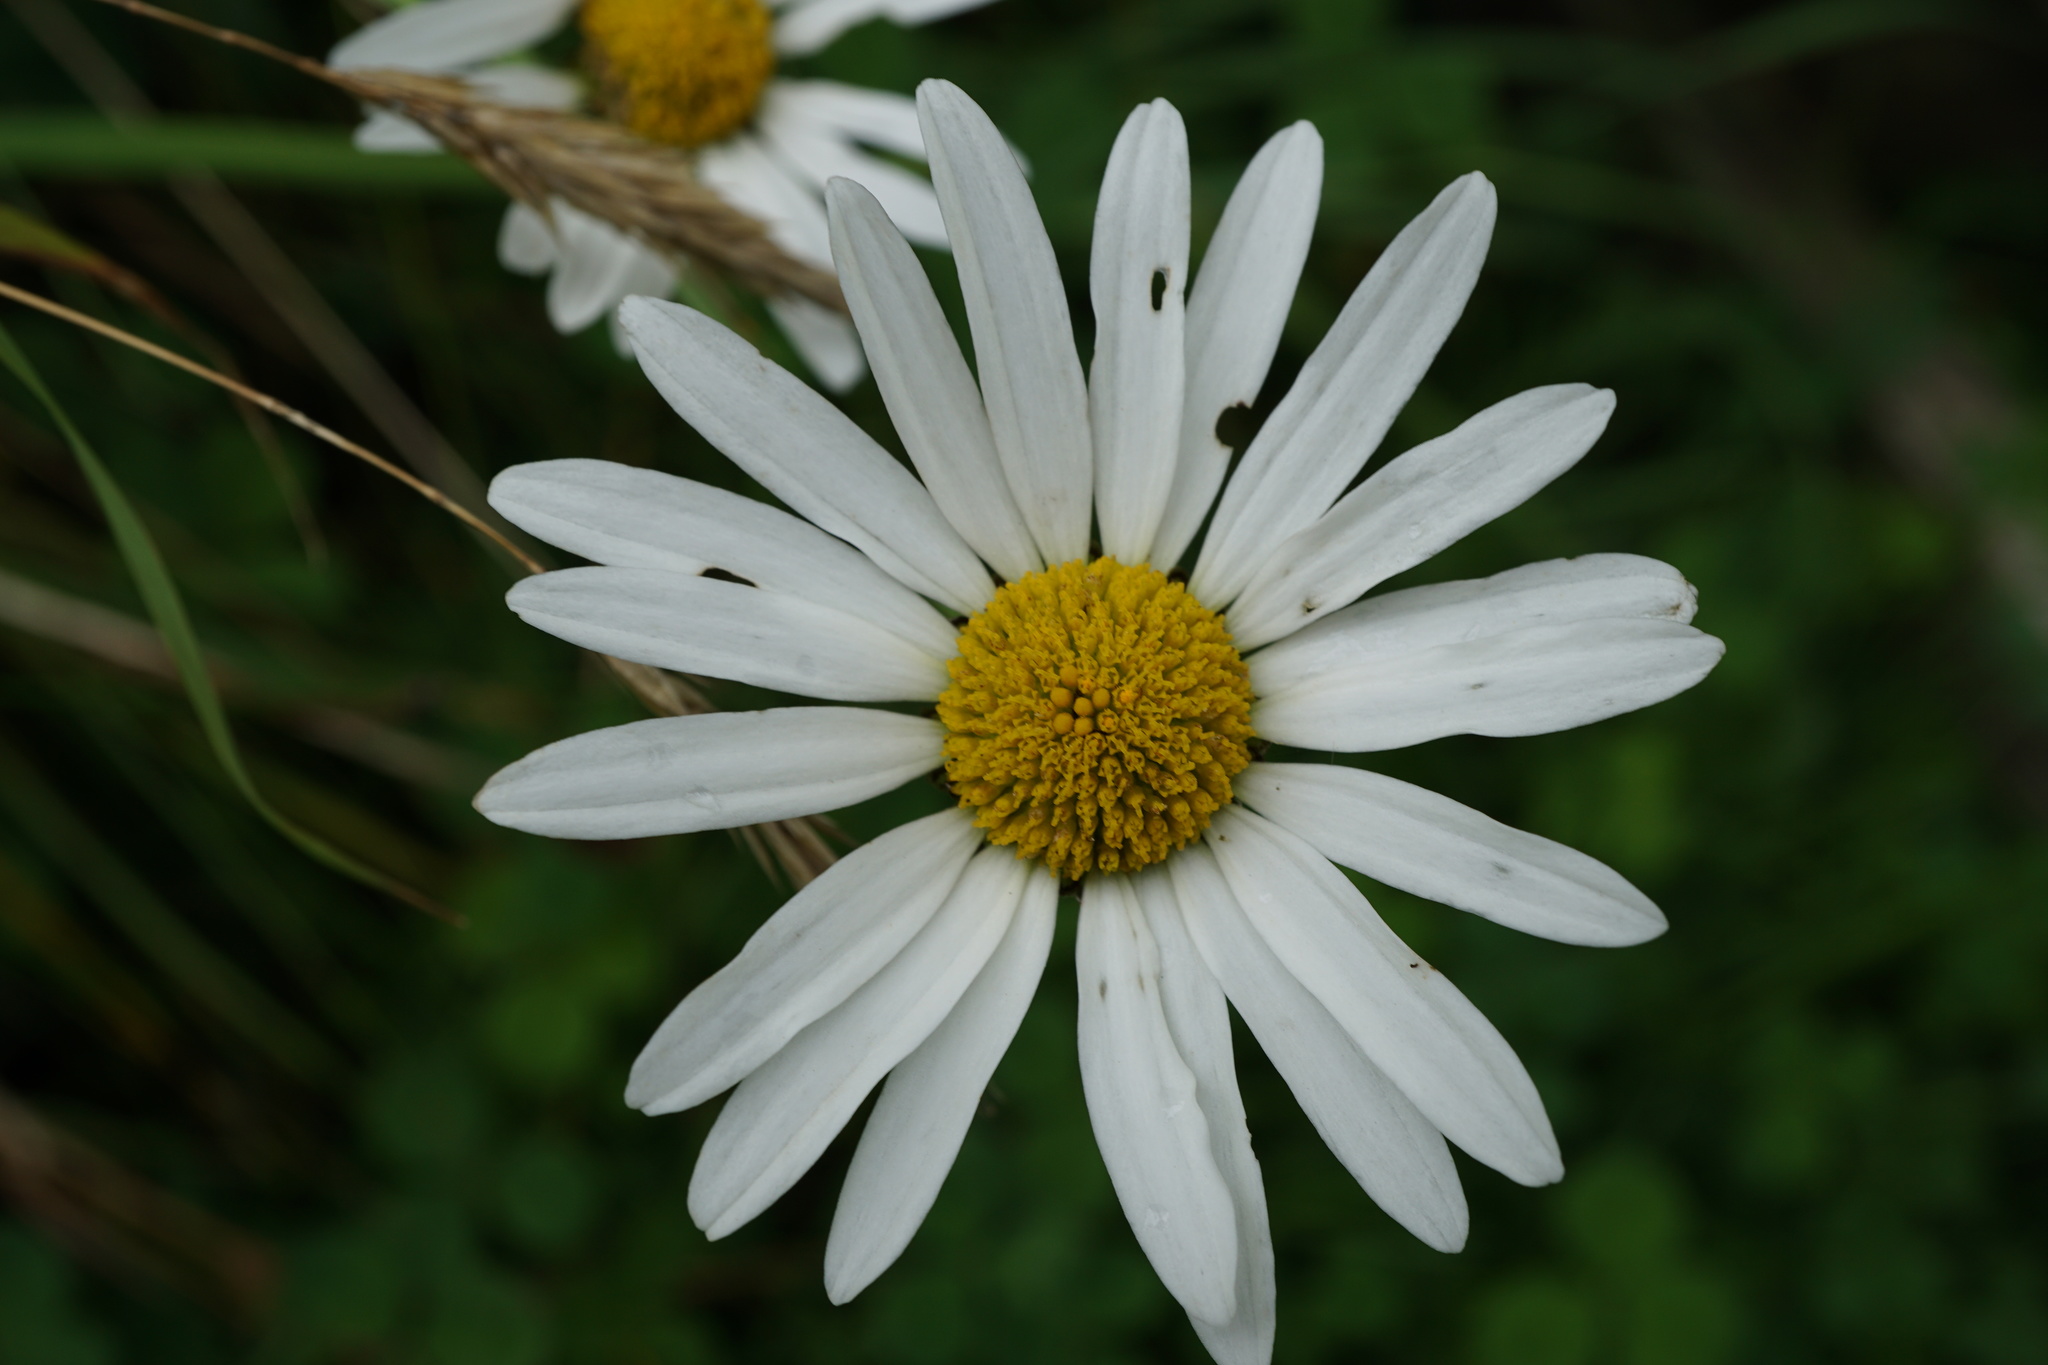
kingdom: Plantae
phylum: Tracheophyta
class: Magnoliopsida
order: Asterales
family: Asteraceae
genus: Leucanthemum
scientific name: Leucanthemum vulgare
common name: Oxeye daisy
